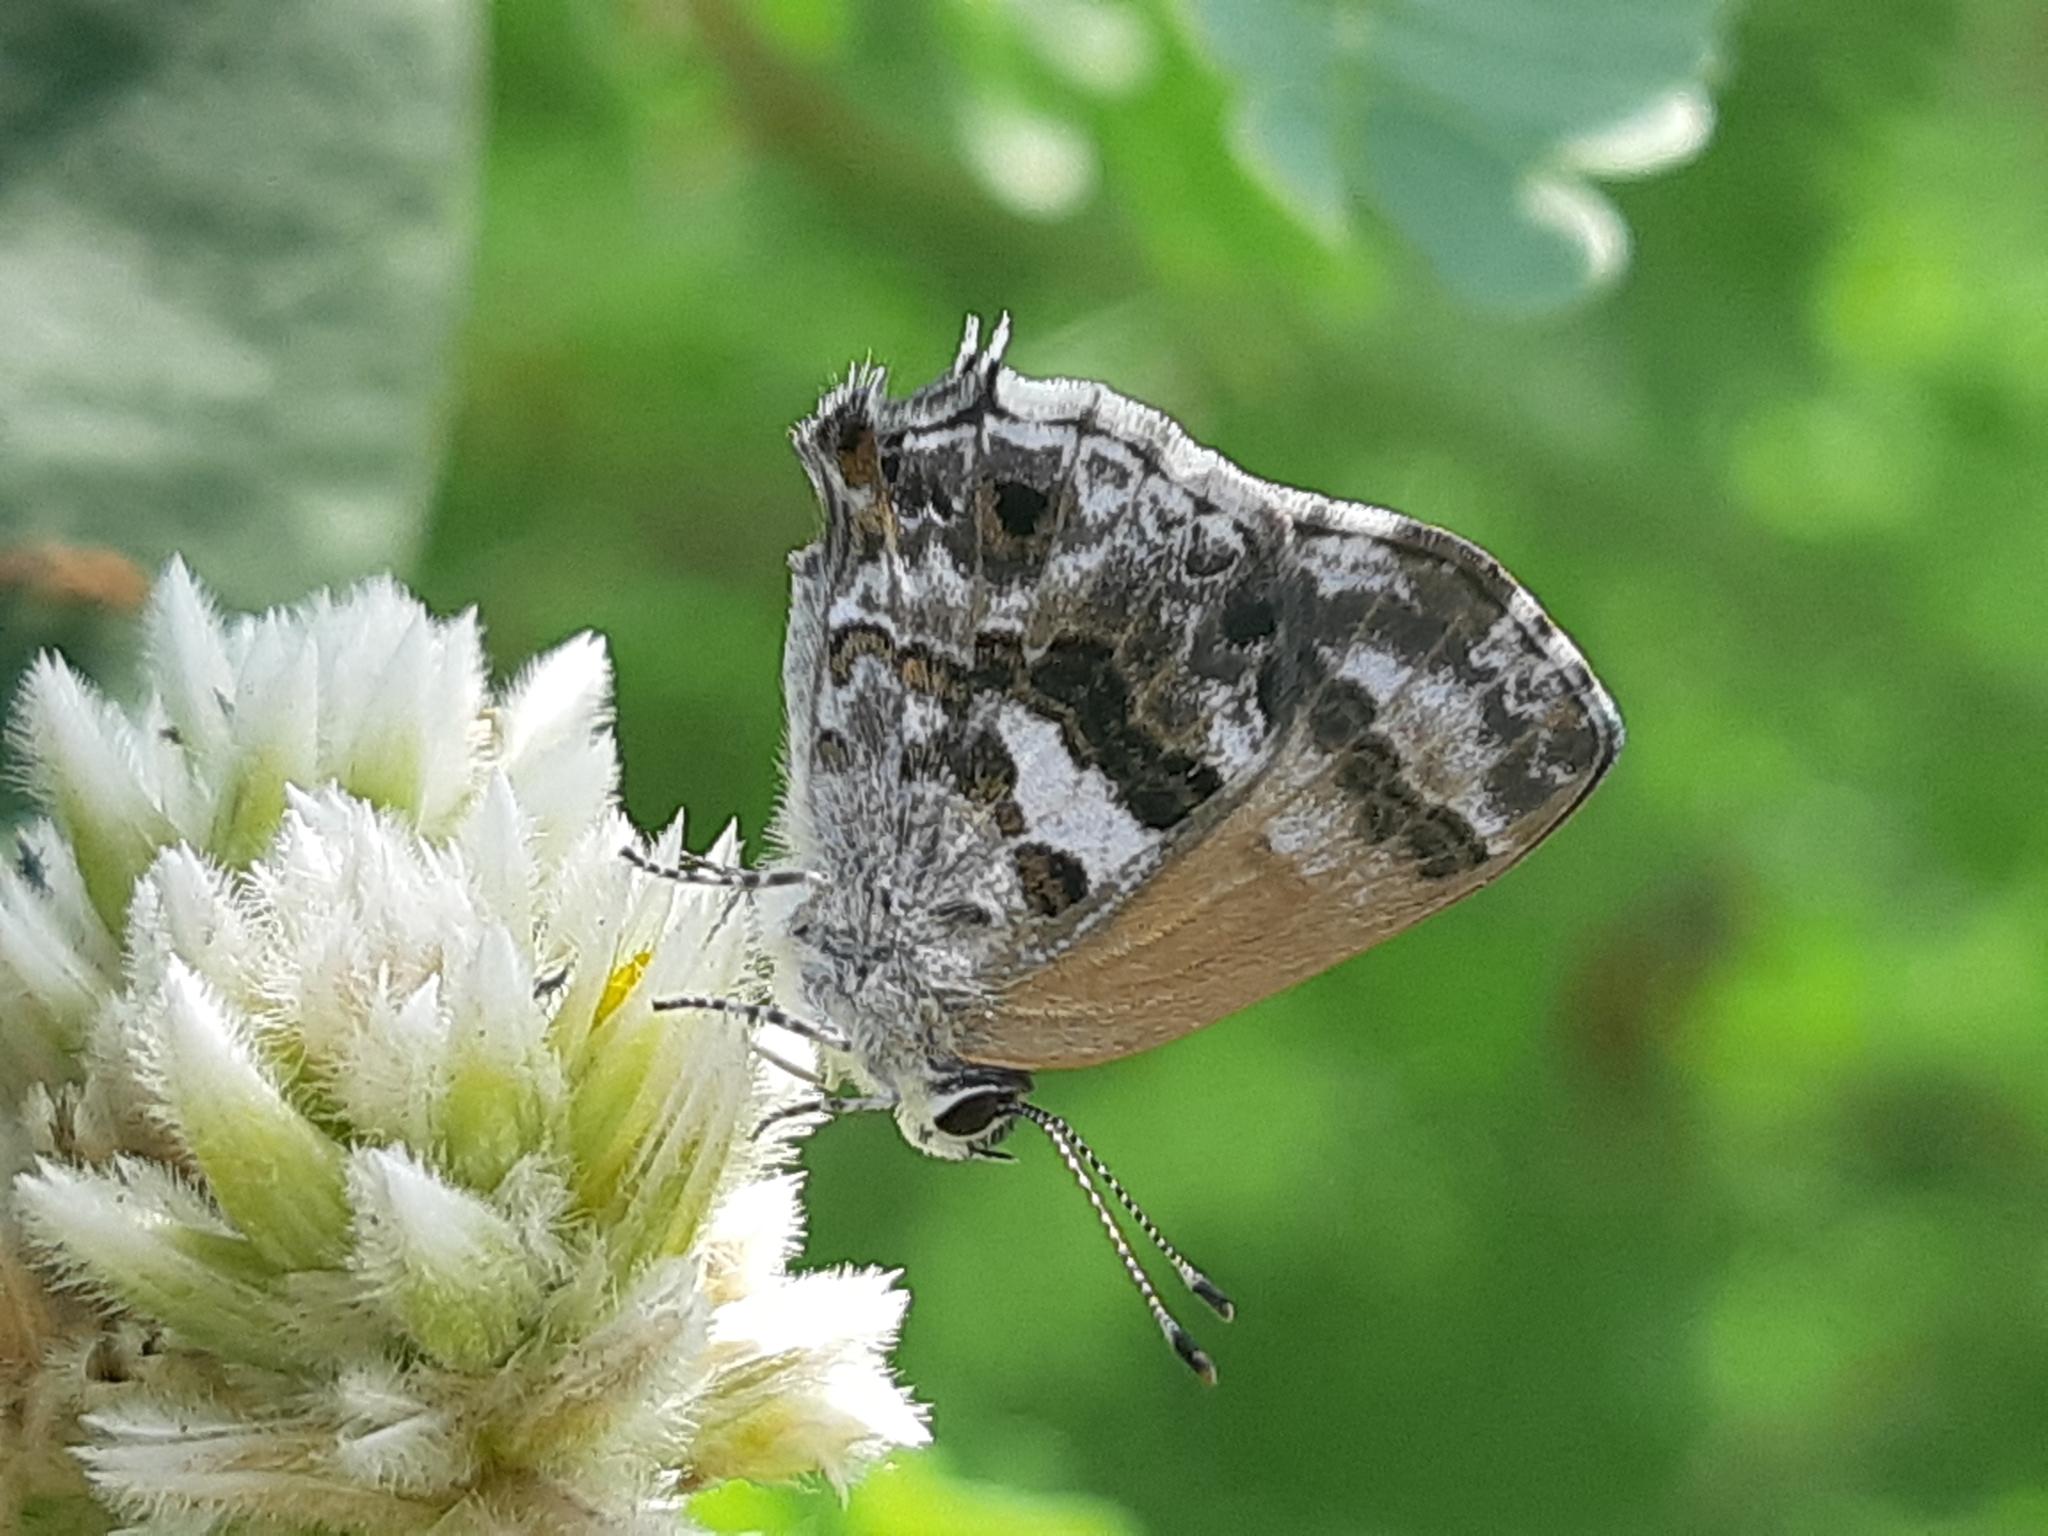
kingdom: Animalia
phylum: Arthropoda
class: Insecta
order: Lepidoptera
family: Lycaenidae
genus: Strymon
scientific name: Strymon
